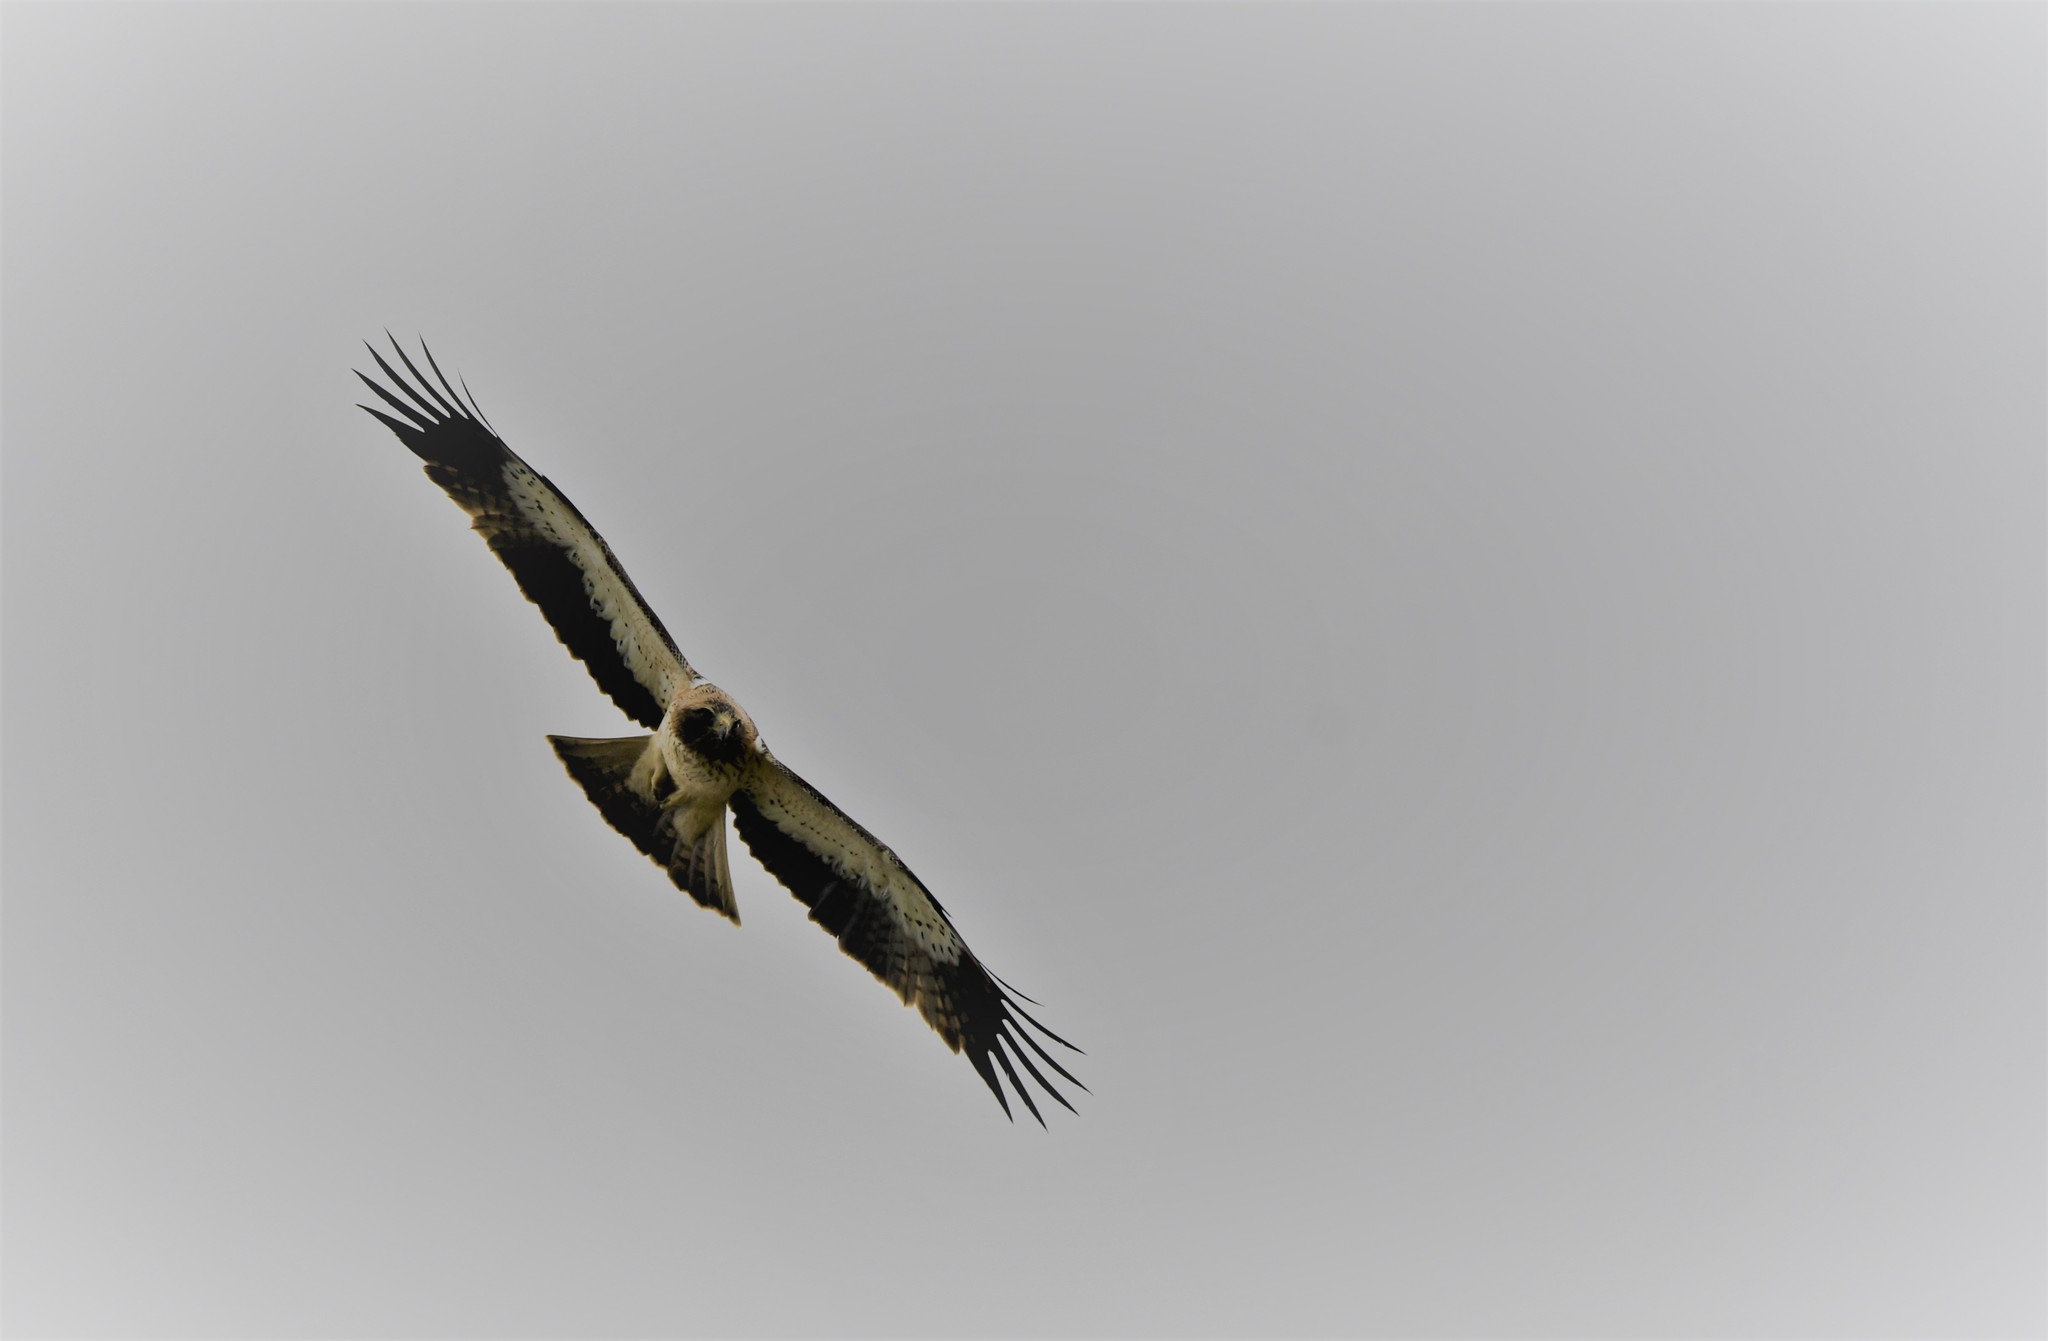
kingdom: Animalia
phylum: Chordata
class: Aves
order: Accipitriformes
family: Accipitridae
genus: Hieraaetus
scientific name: Hieraaetus pennatus
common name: Booted eagle
